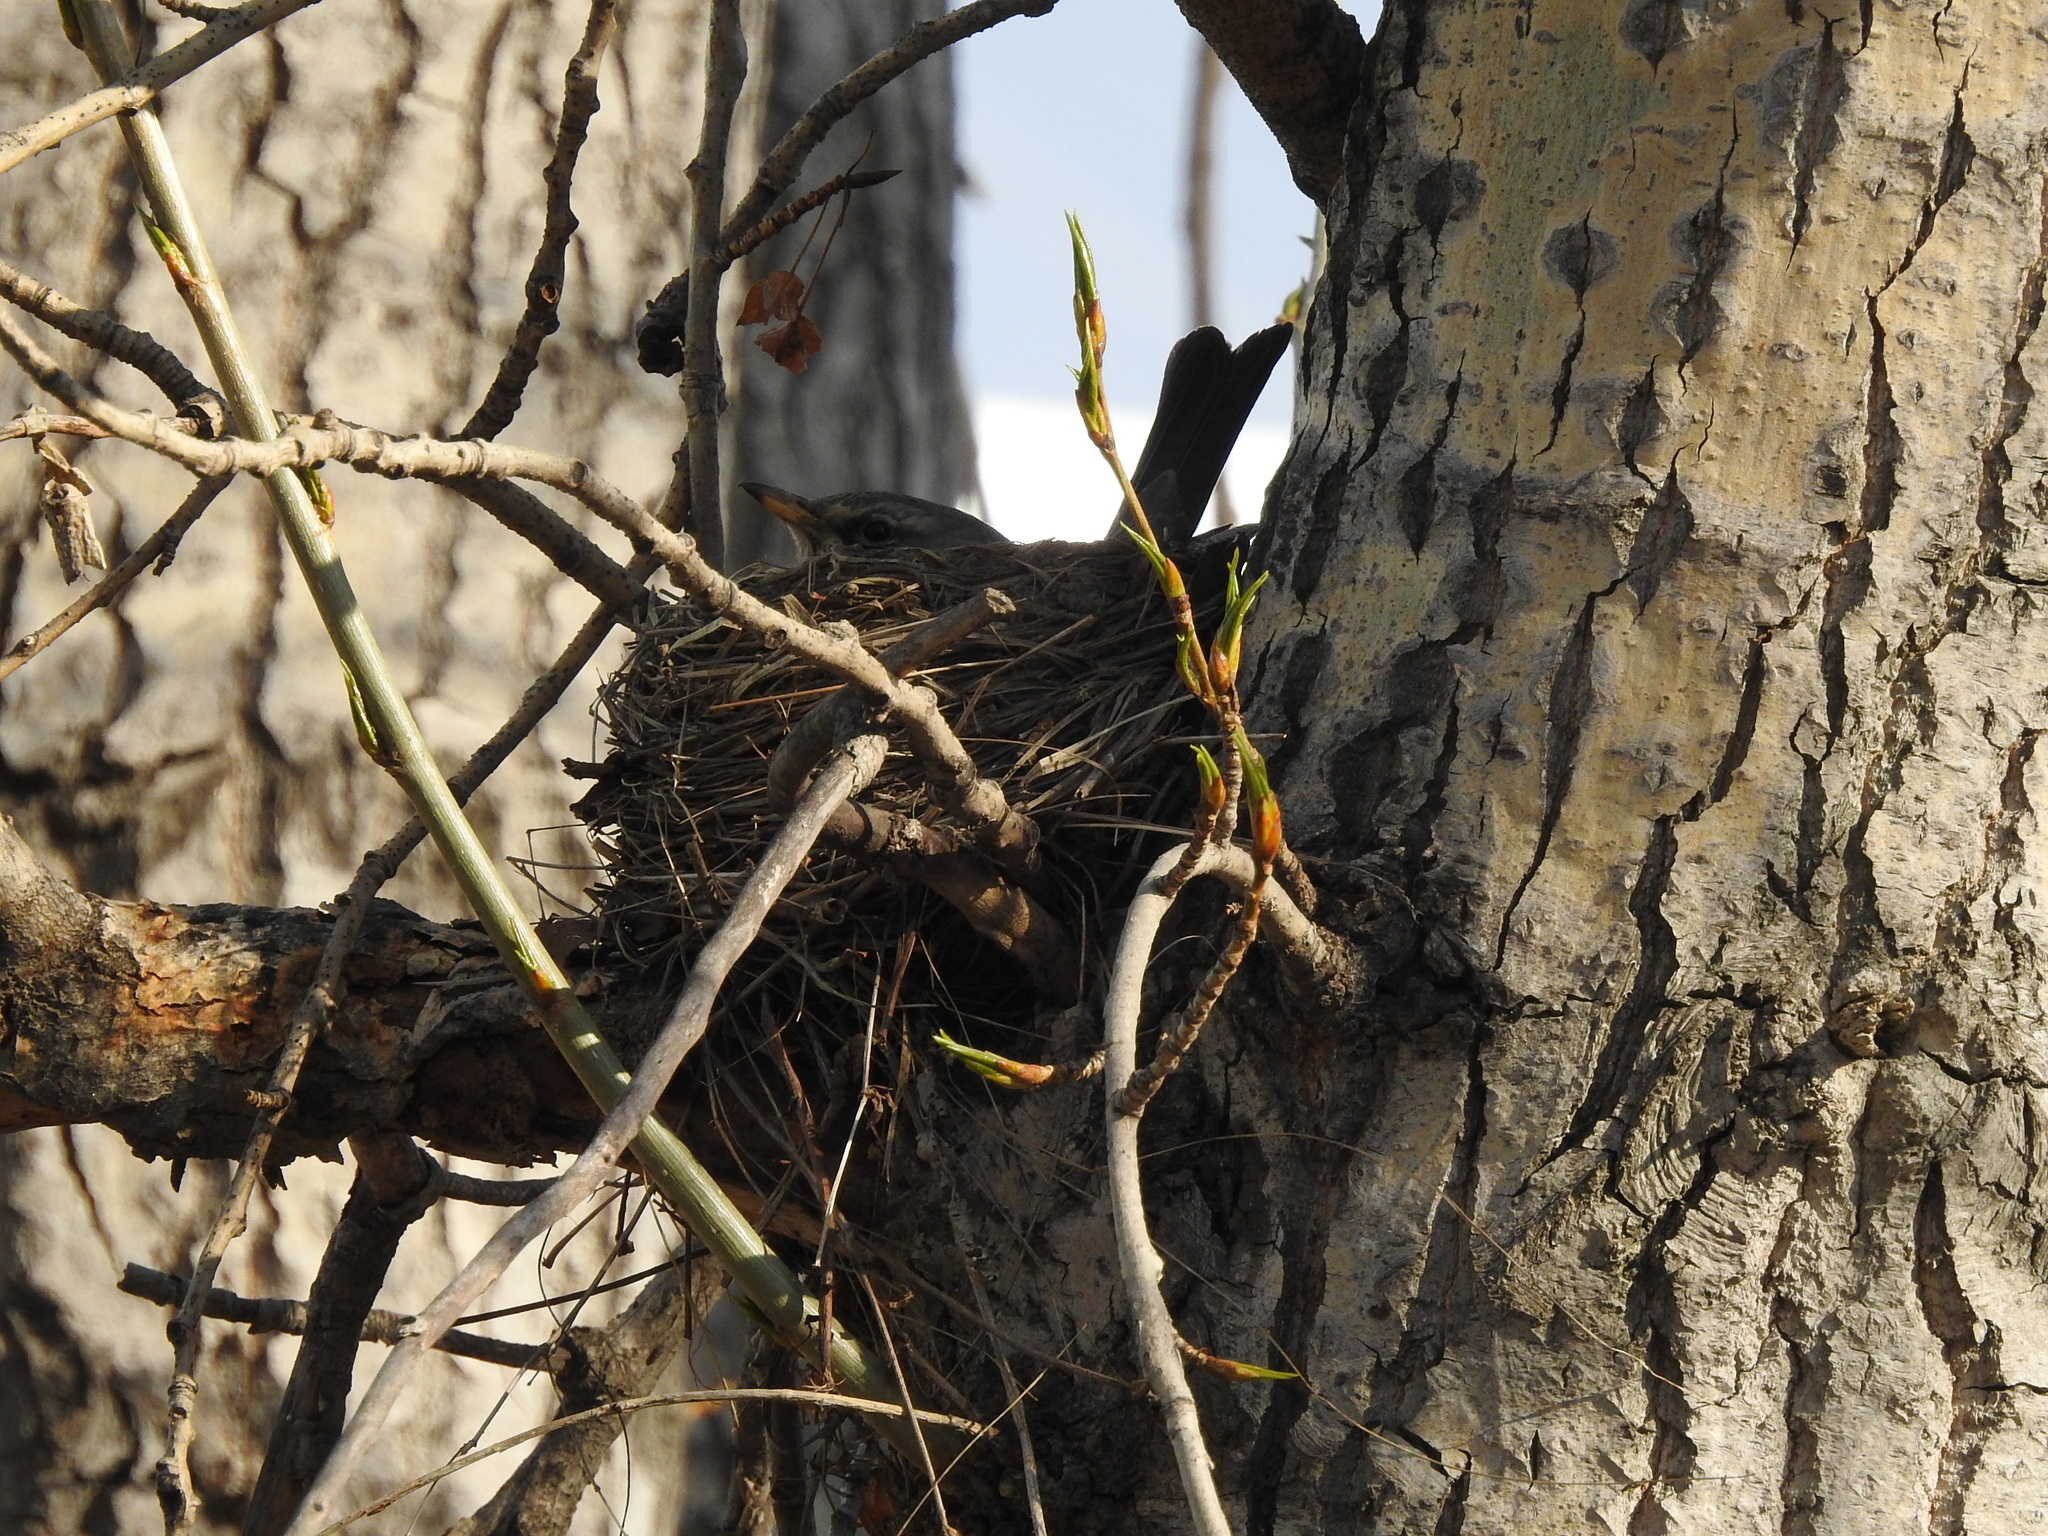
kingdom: Animalia
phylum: Chordata
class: Aves
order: Passeriformes
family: Turdidae
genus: Turdus
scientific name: Turdus pilaris
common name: Fieldfare
